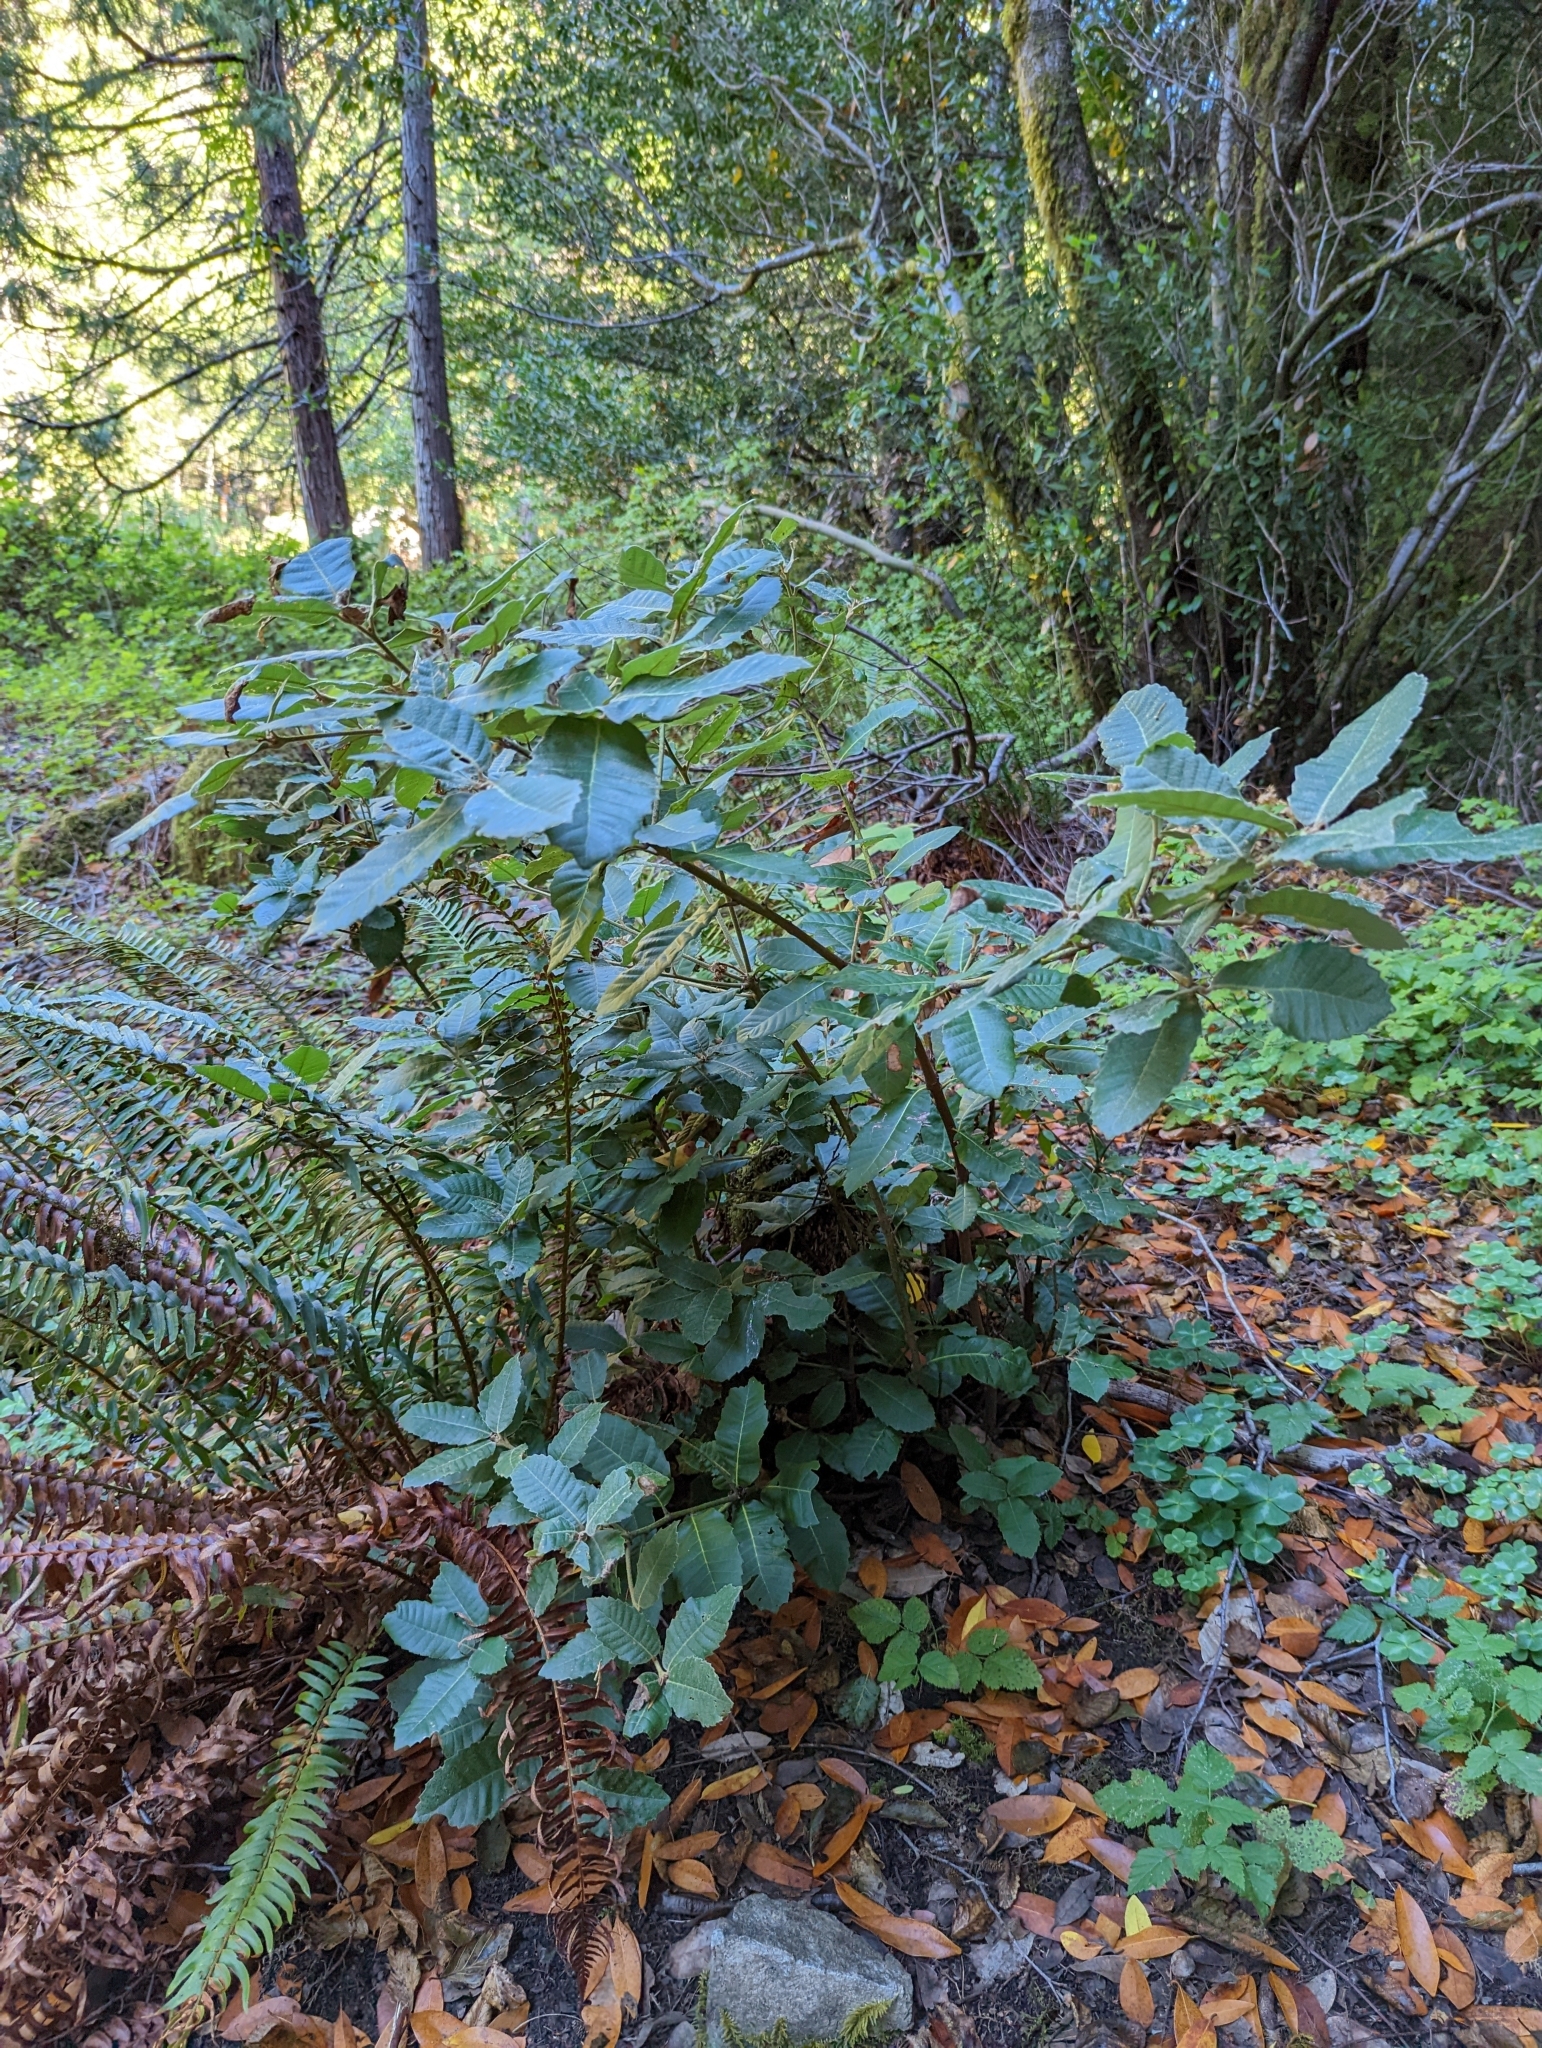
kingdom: Plantae
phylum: Tracheophyta
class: Magnoliopsida
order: Fagales
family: Fagaceae
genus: Notholithocarpus
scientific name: Notholithocarpus densiflorus
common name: Tan bark oak
